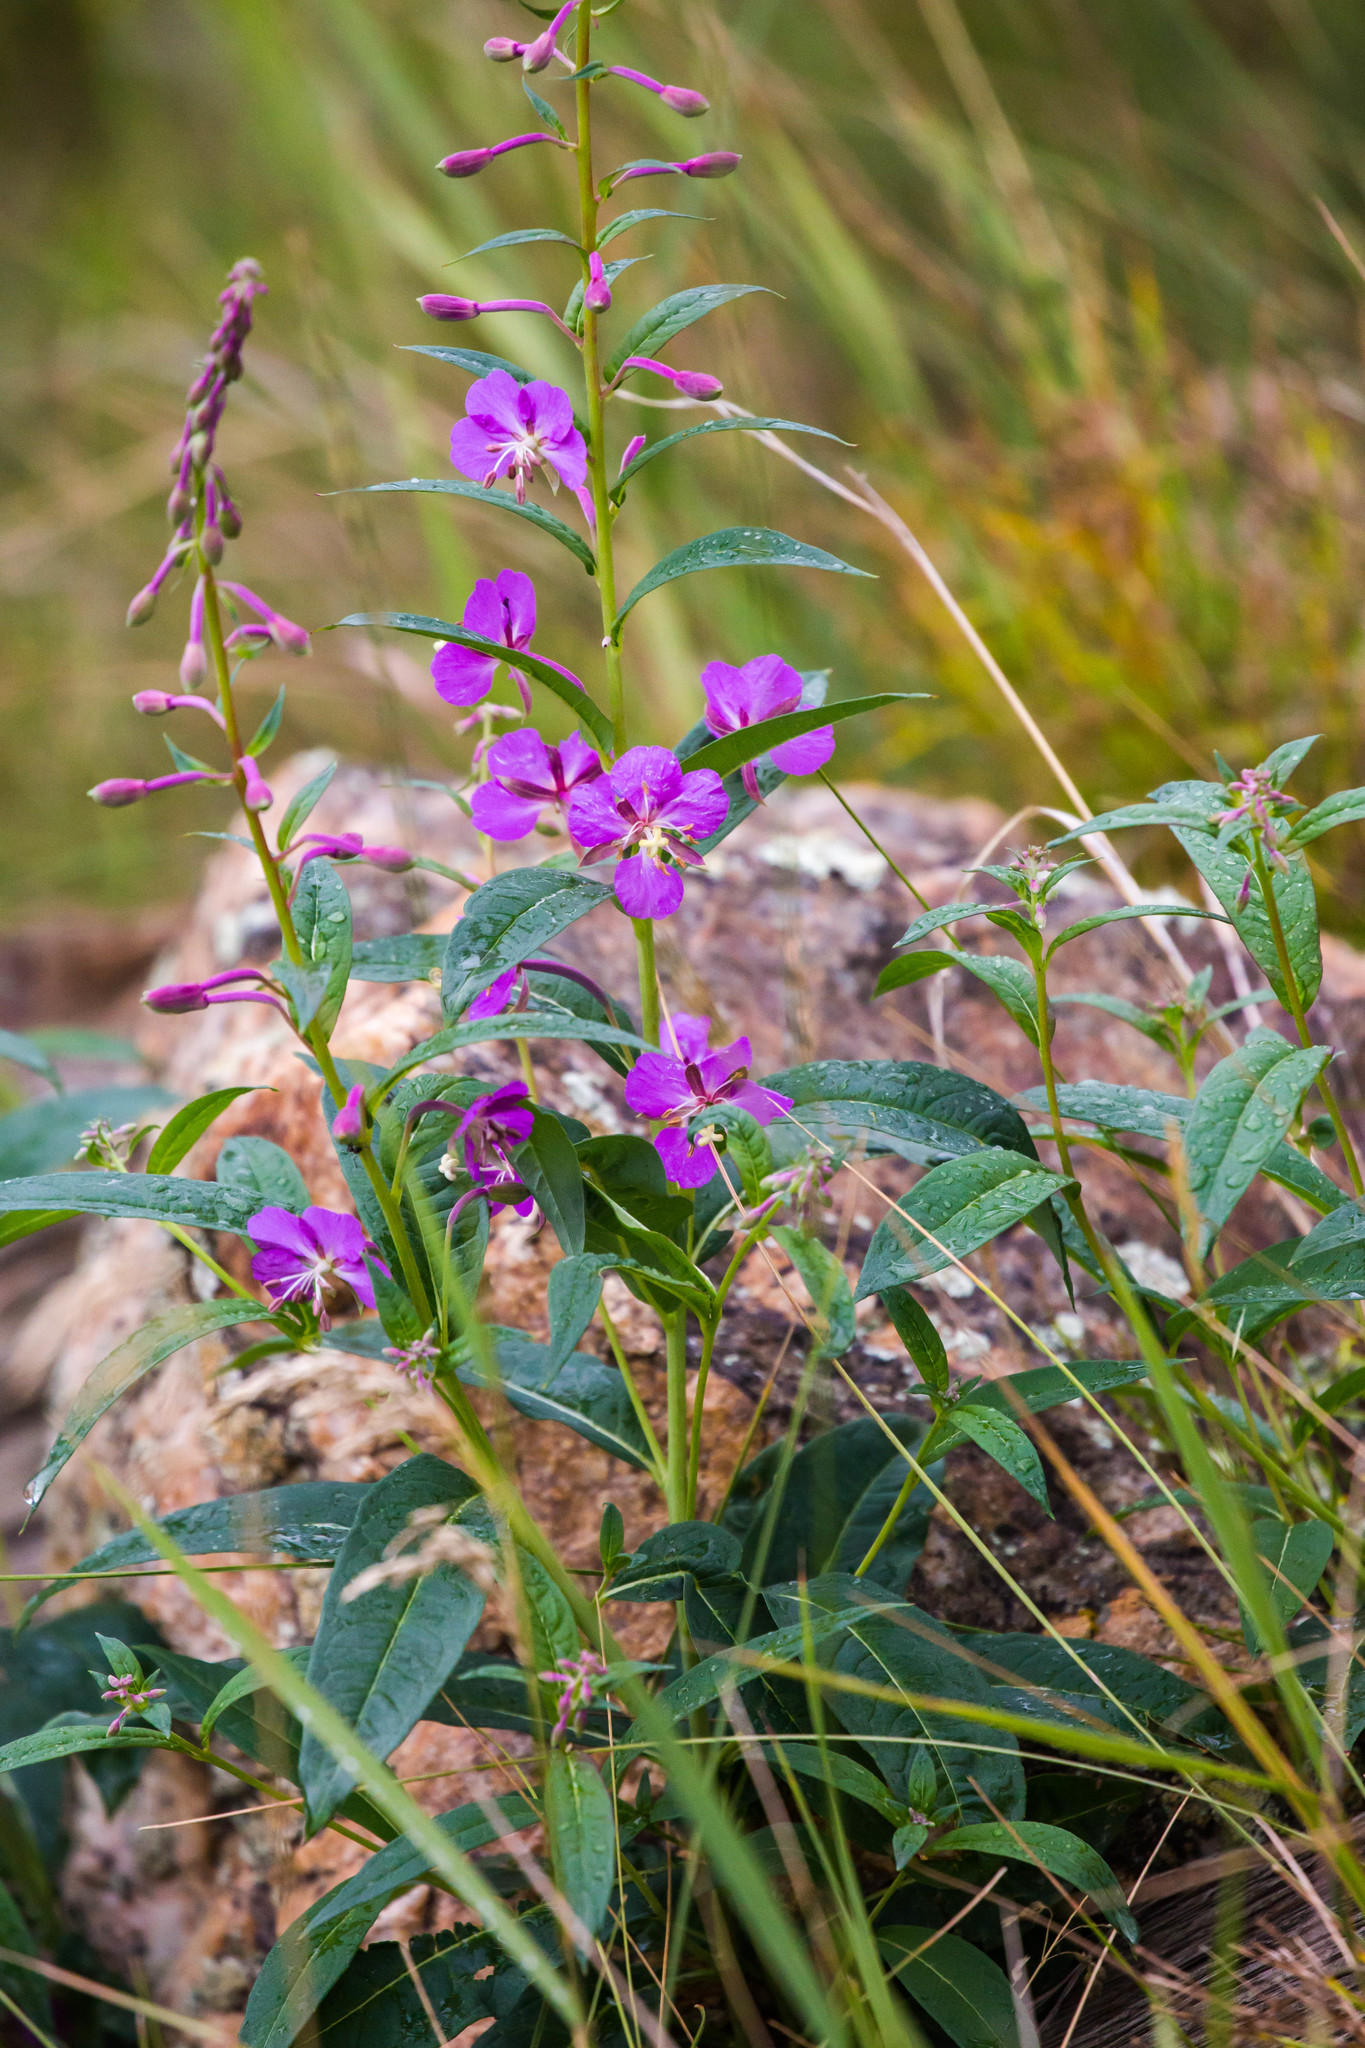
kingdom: Plantae
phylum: Tracheophyta
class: Magnoliopsida
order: Myrtales
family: Onagraceae
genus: Chamaenerion
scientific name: Chamaenerion angustifolium
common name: Fireweed
